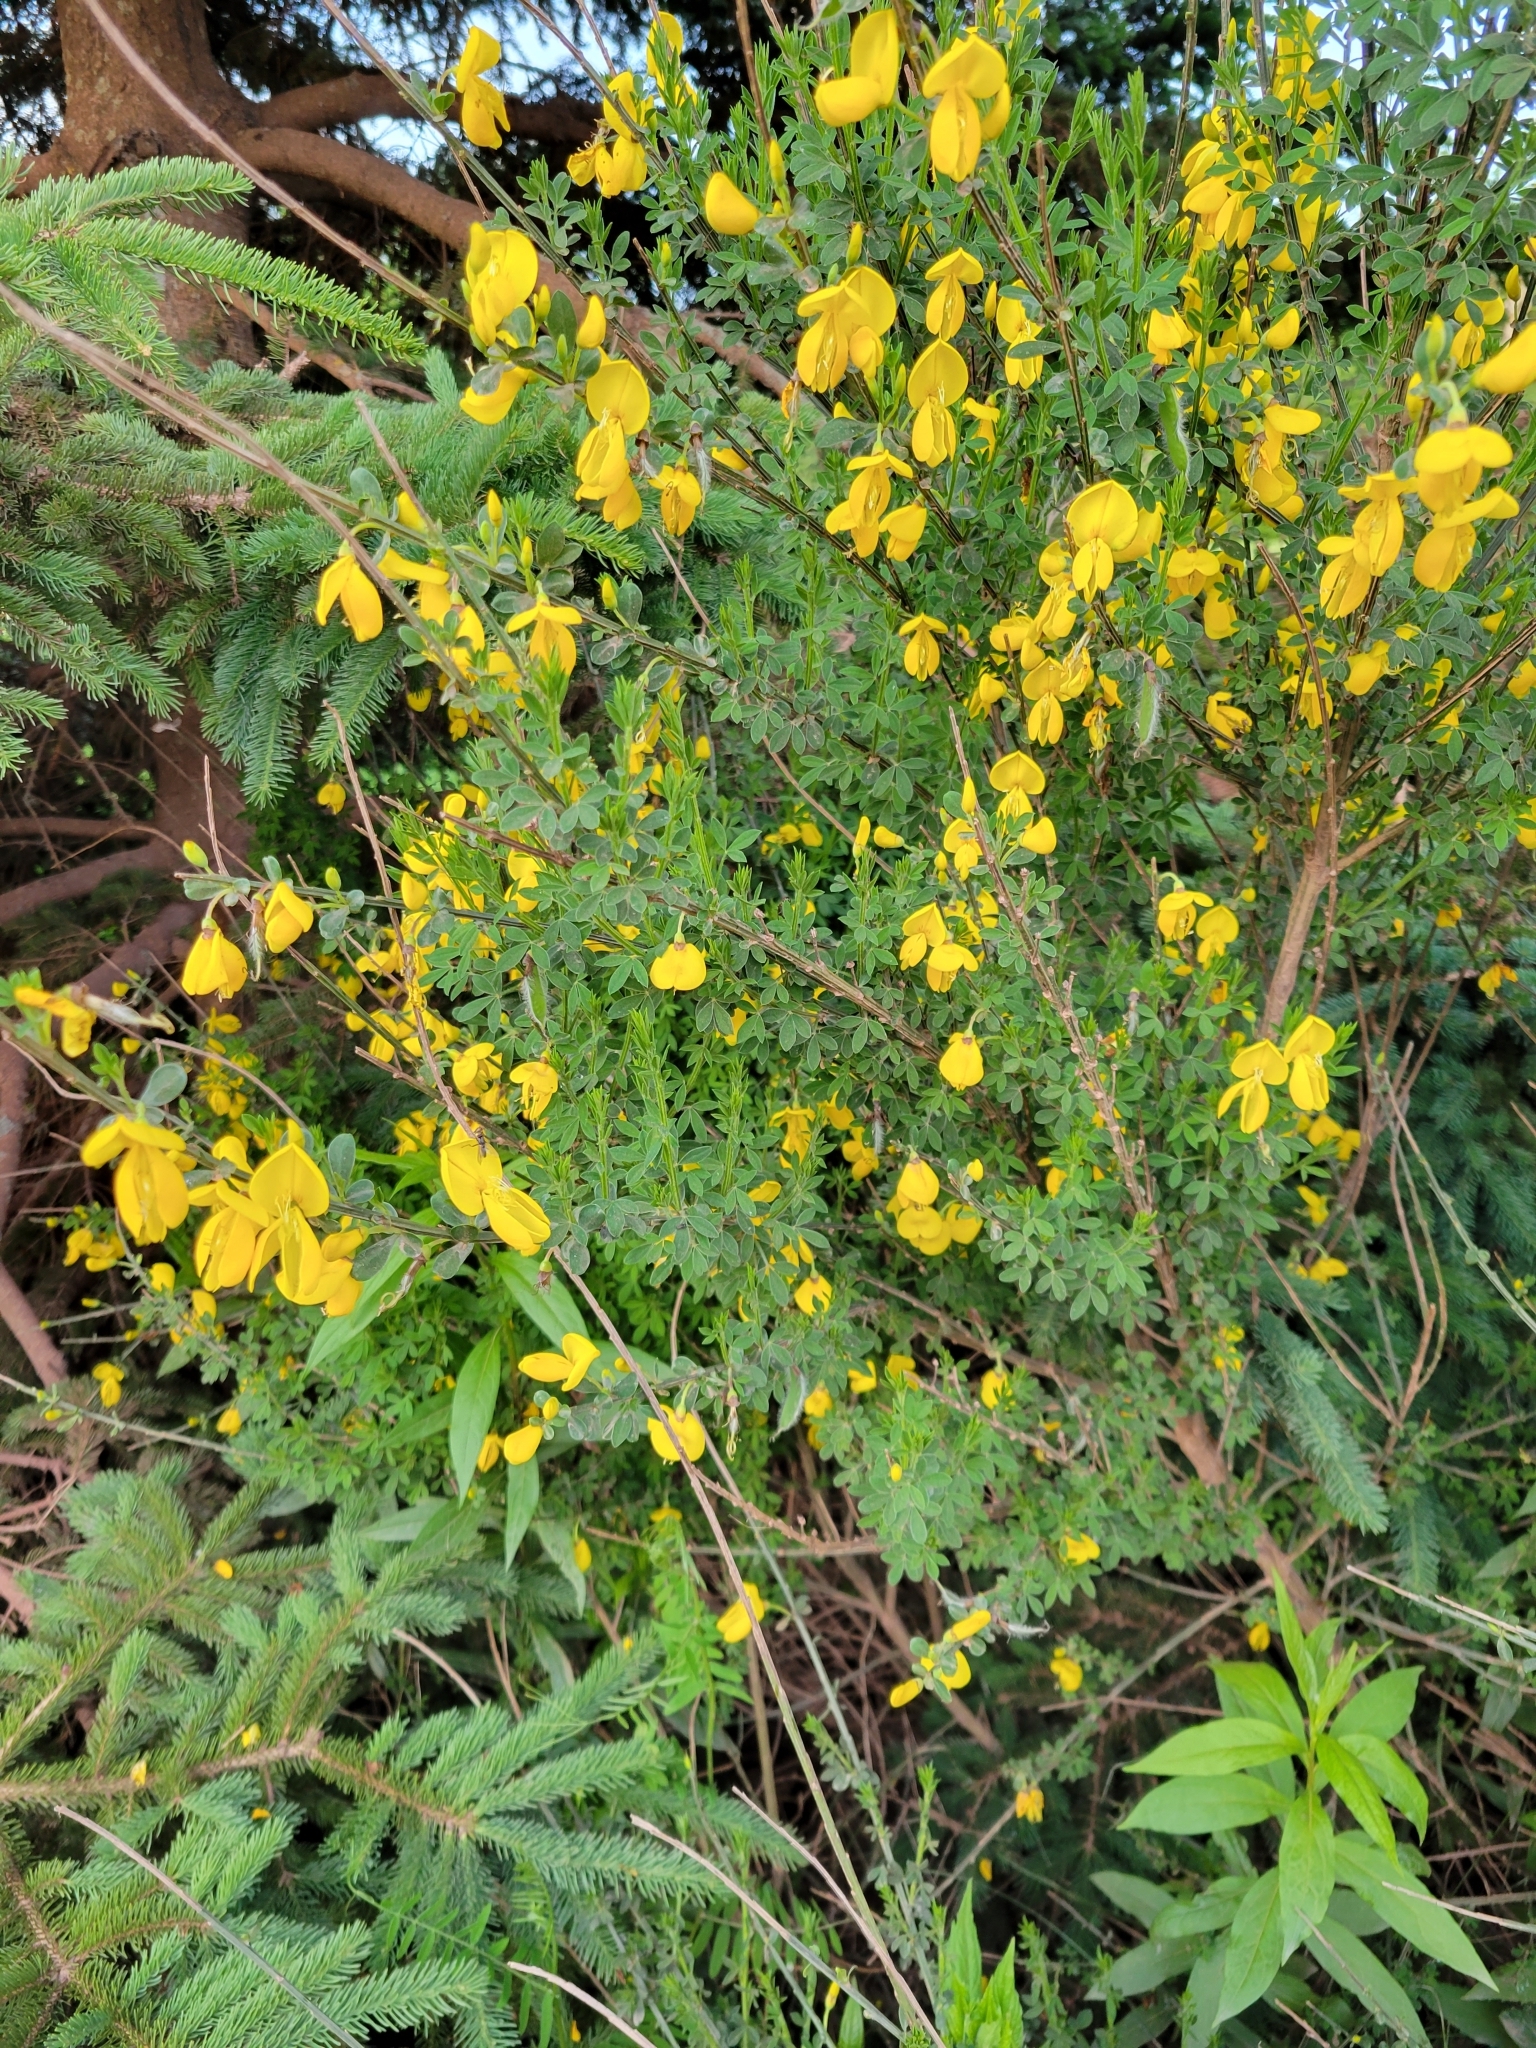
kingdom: Plantae
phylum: Tracheophyta
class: Magnoliopsida
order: Fabales
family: Fabaceae
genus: Cytisus
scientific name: Cytisus scoparius
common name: Scotch broom
